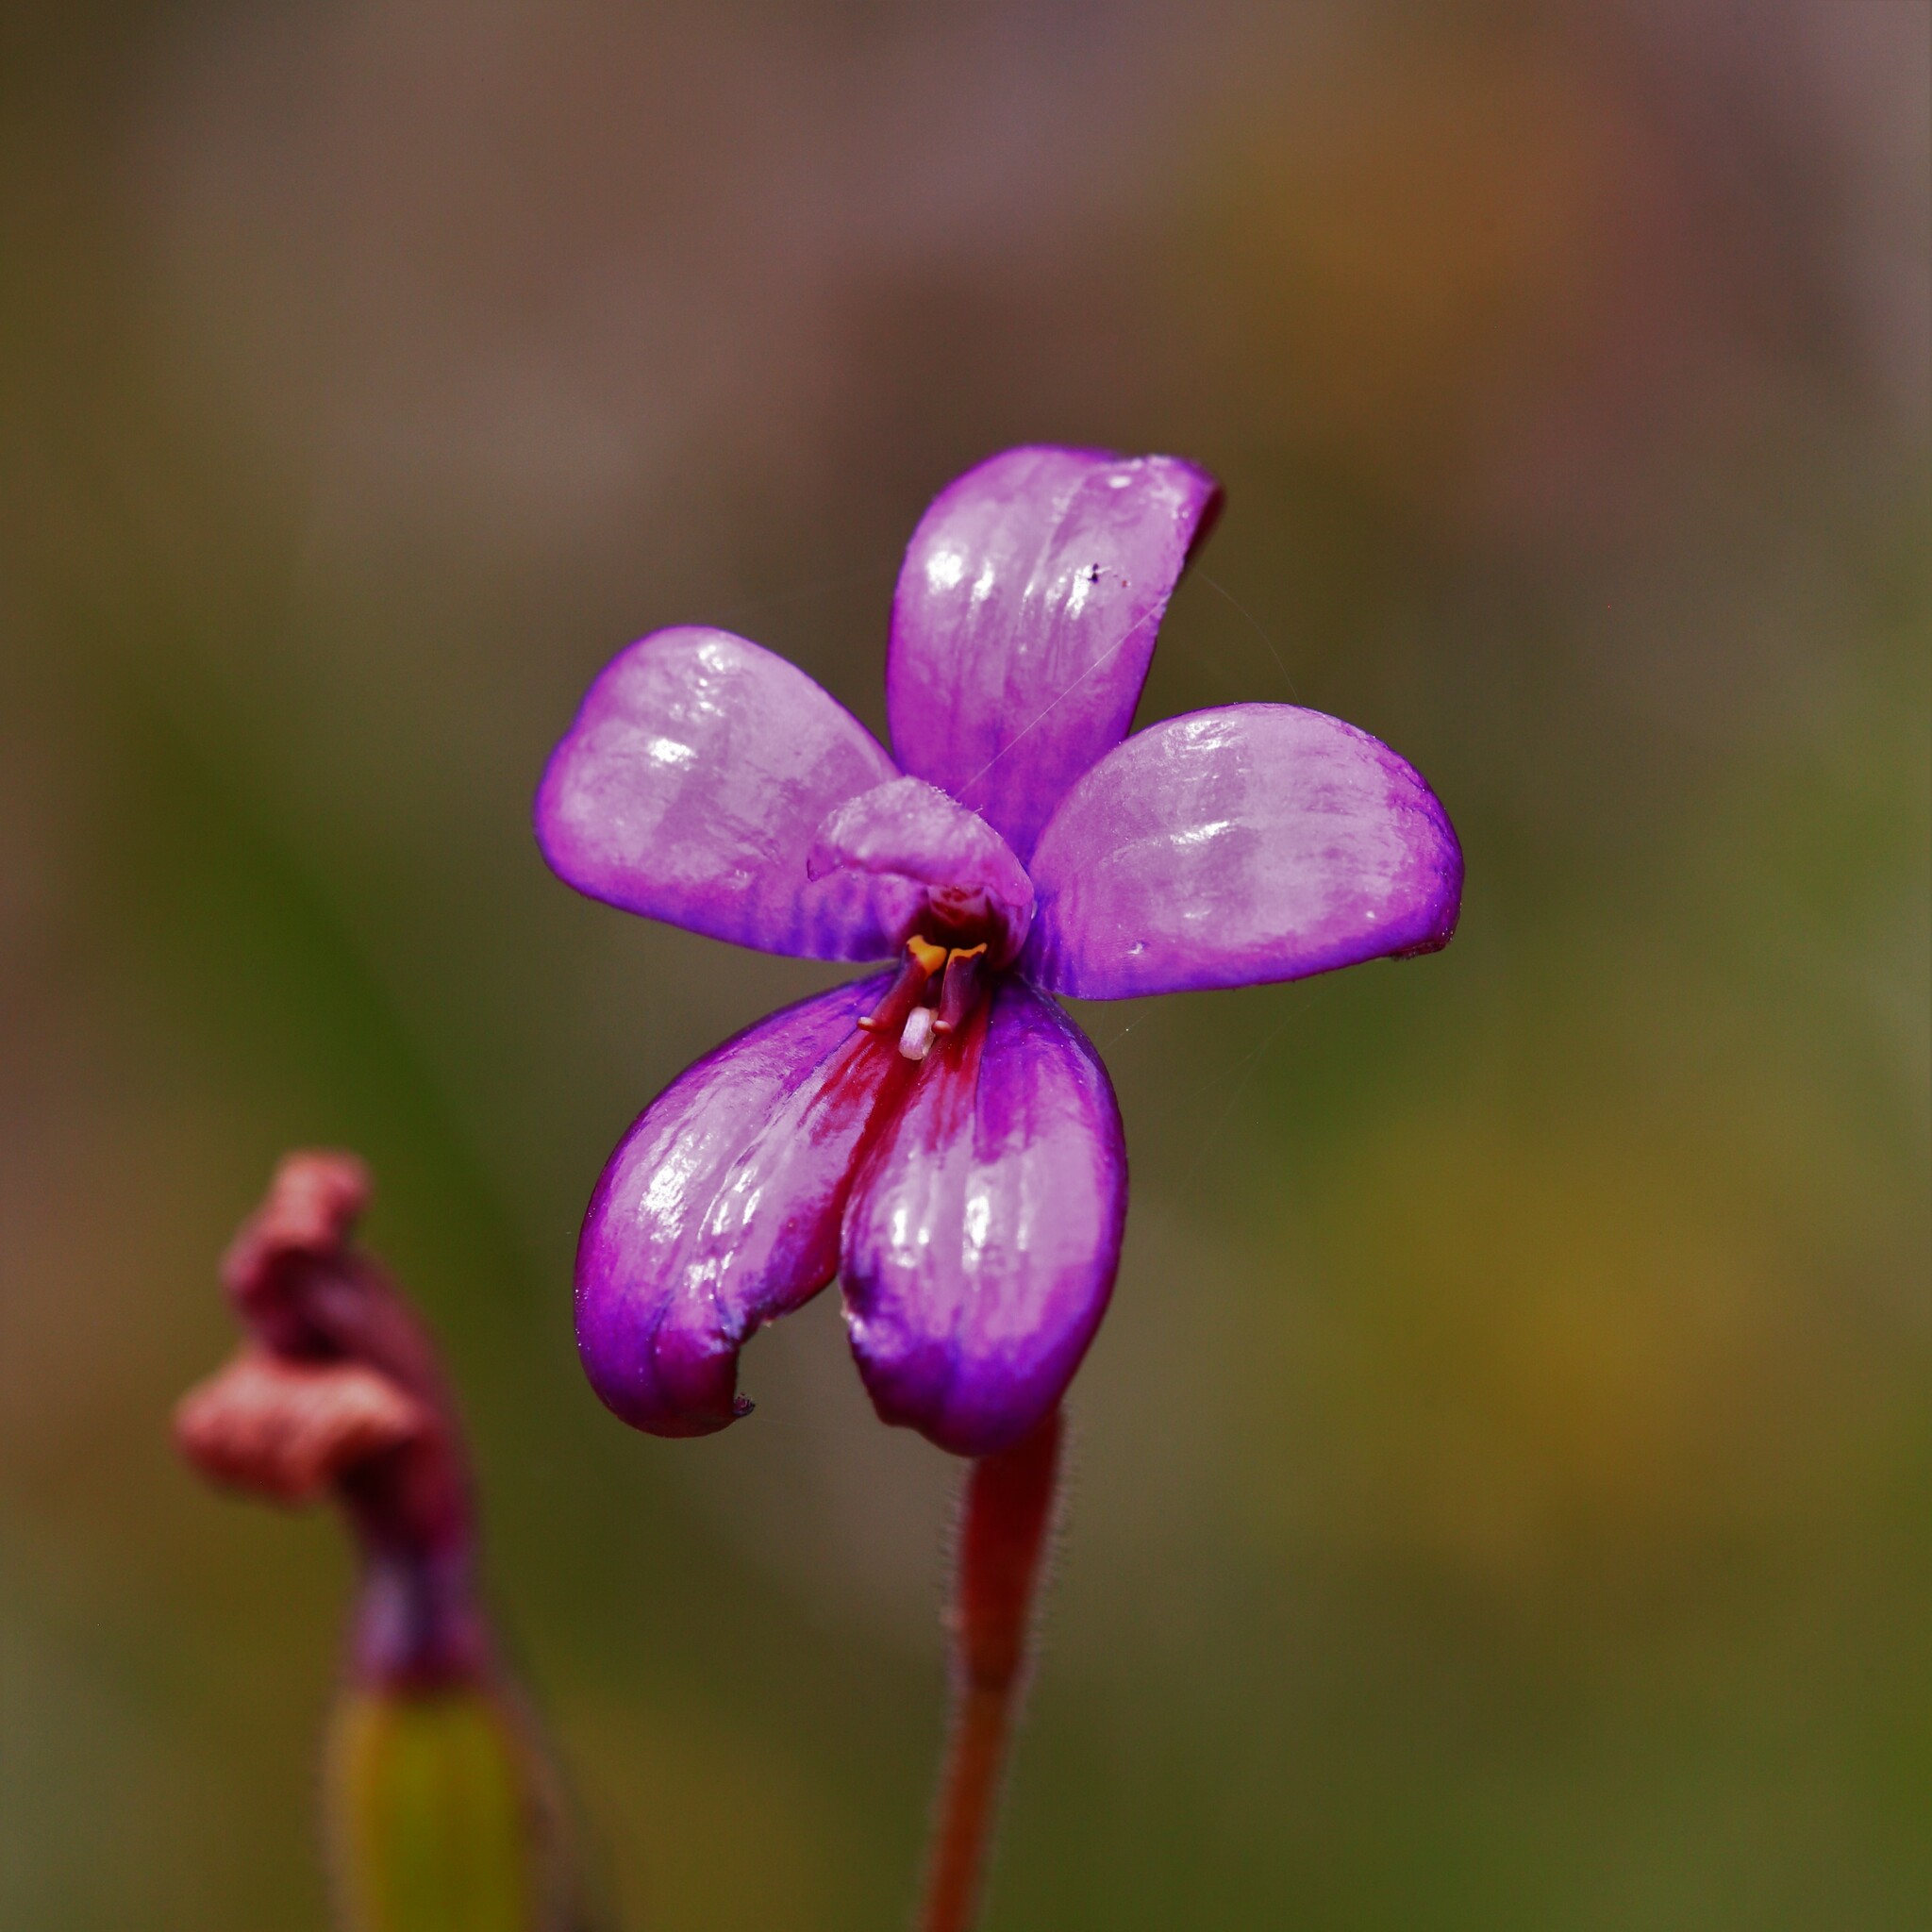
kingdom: Plantae
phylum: Tracheophyta
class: Liliopsida
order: Asparagales
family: Orchidaceae
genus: Caladenia
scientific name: Caladenia brunonis
